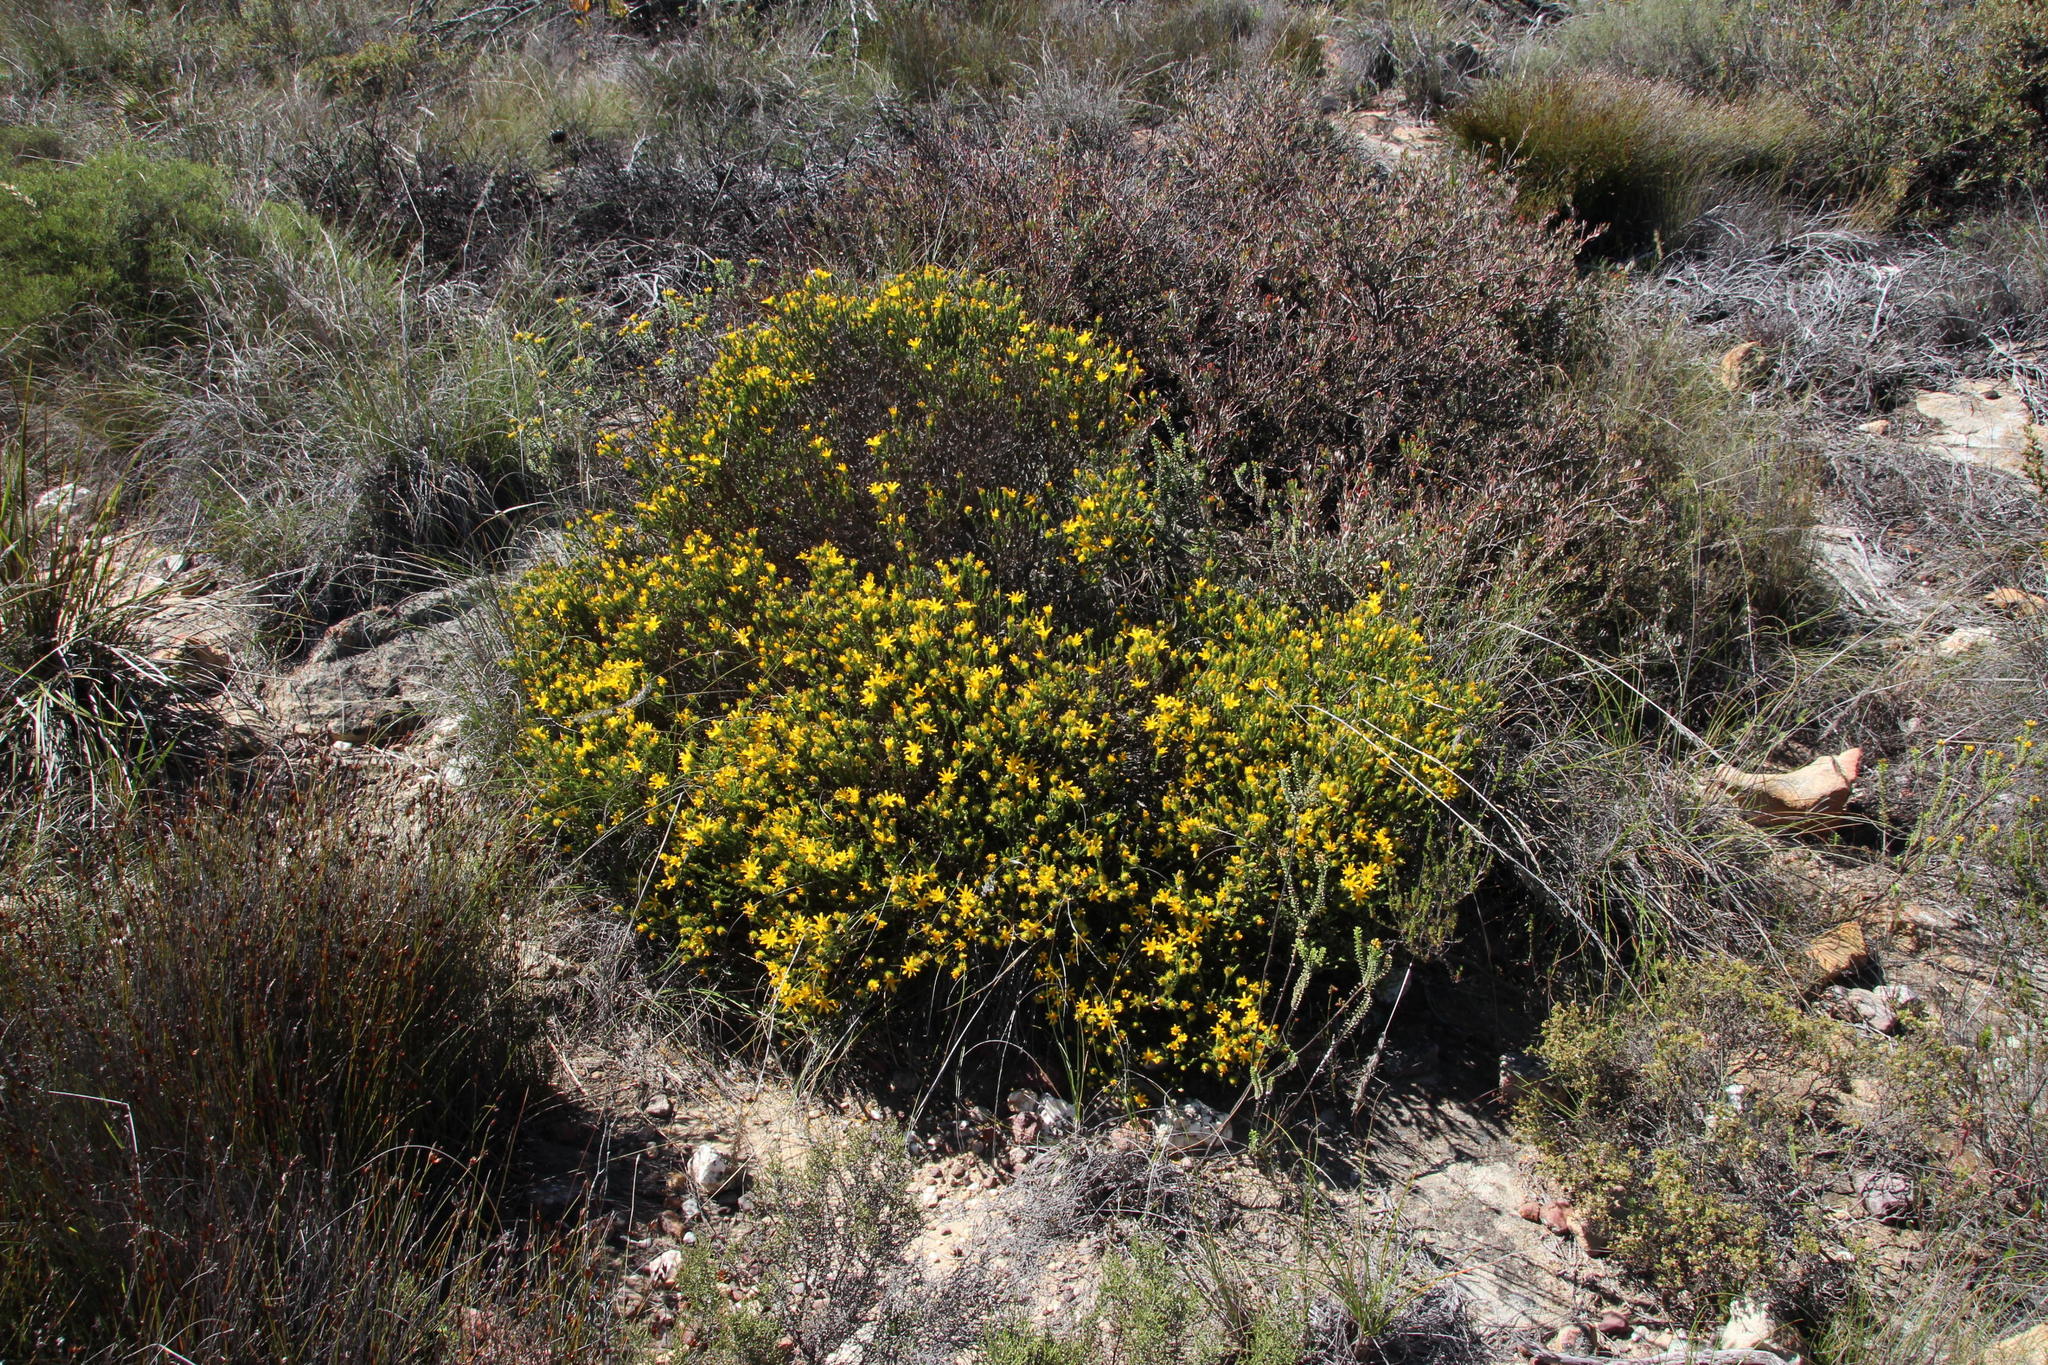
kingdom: Plantae
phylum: Tracheophyta
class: Magnoliopsida
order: Asterales
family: Asteraceae
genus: Cullumia
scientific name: Cullumia sulcata
